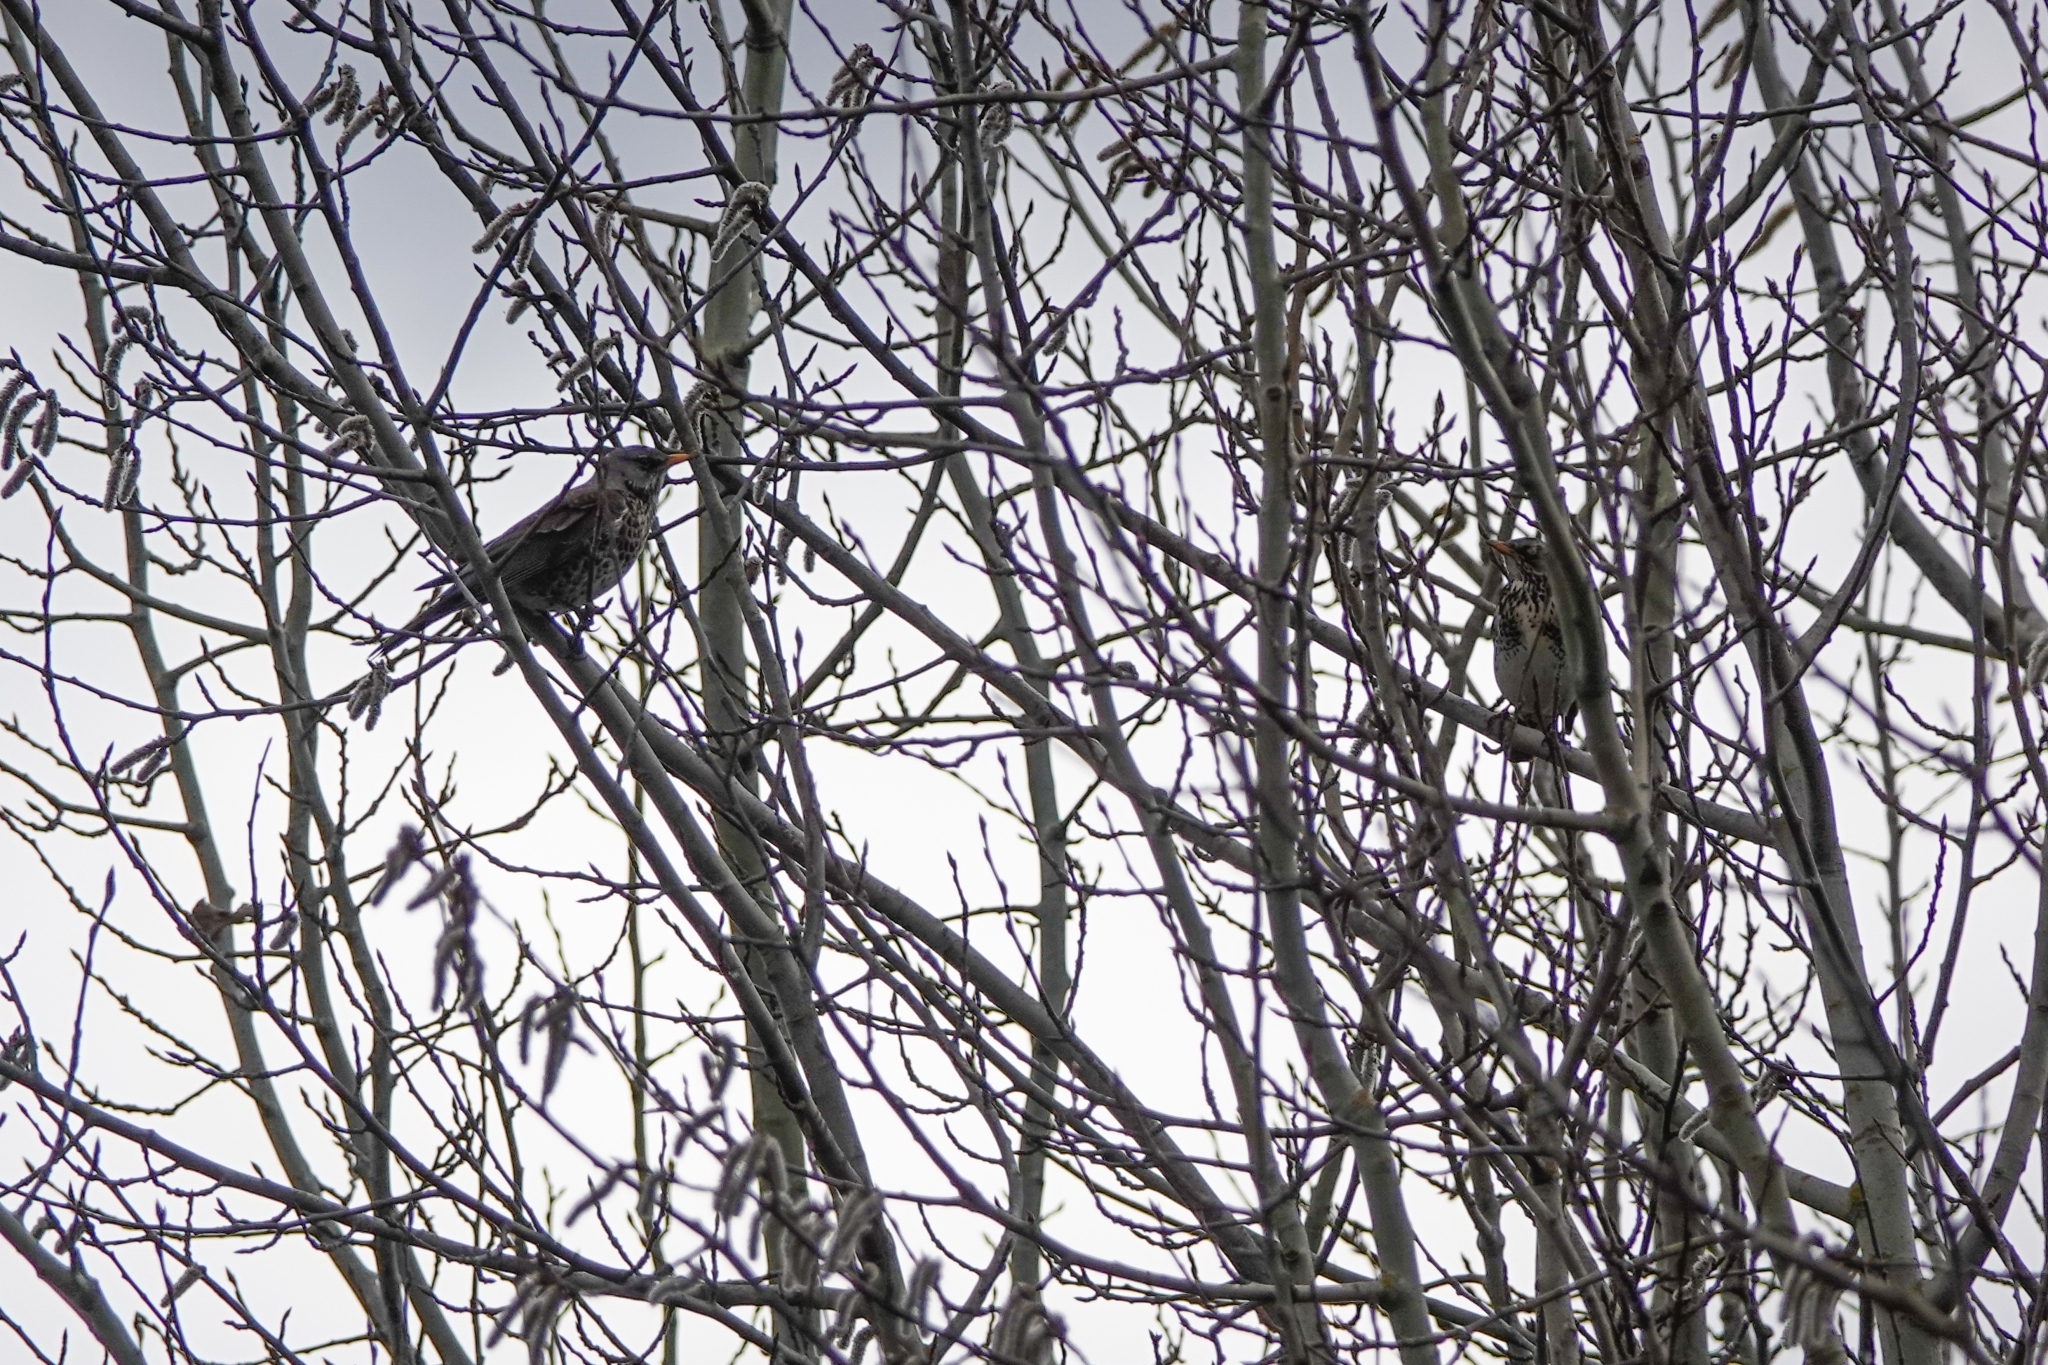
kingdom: Animalia
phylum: Chordata
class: Aves
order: Passeriformes
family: Turdidae
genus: Turdus
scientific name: Turdus pilaris
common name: Fieldfare
